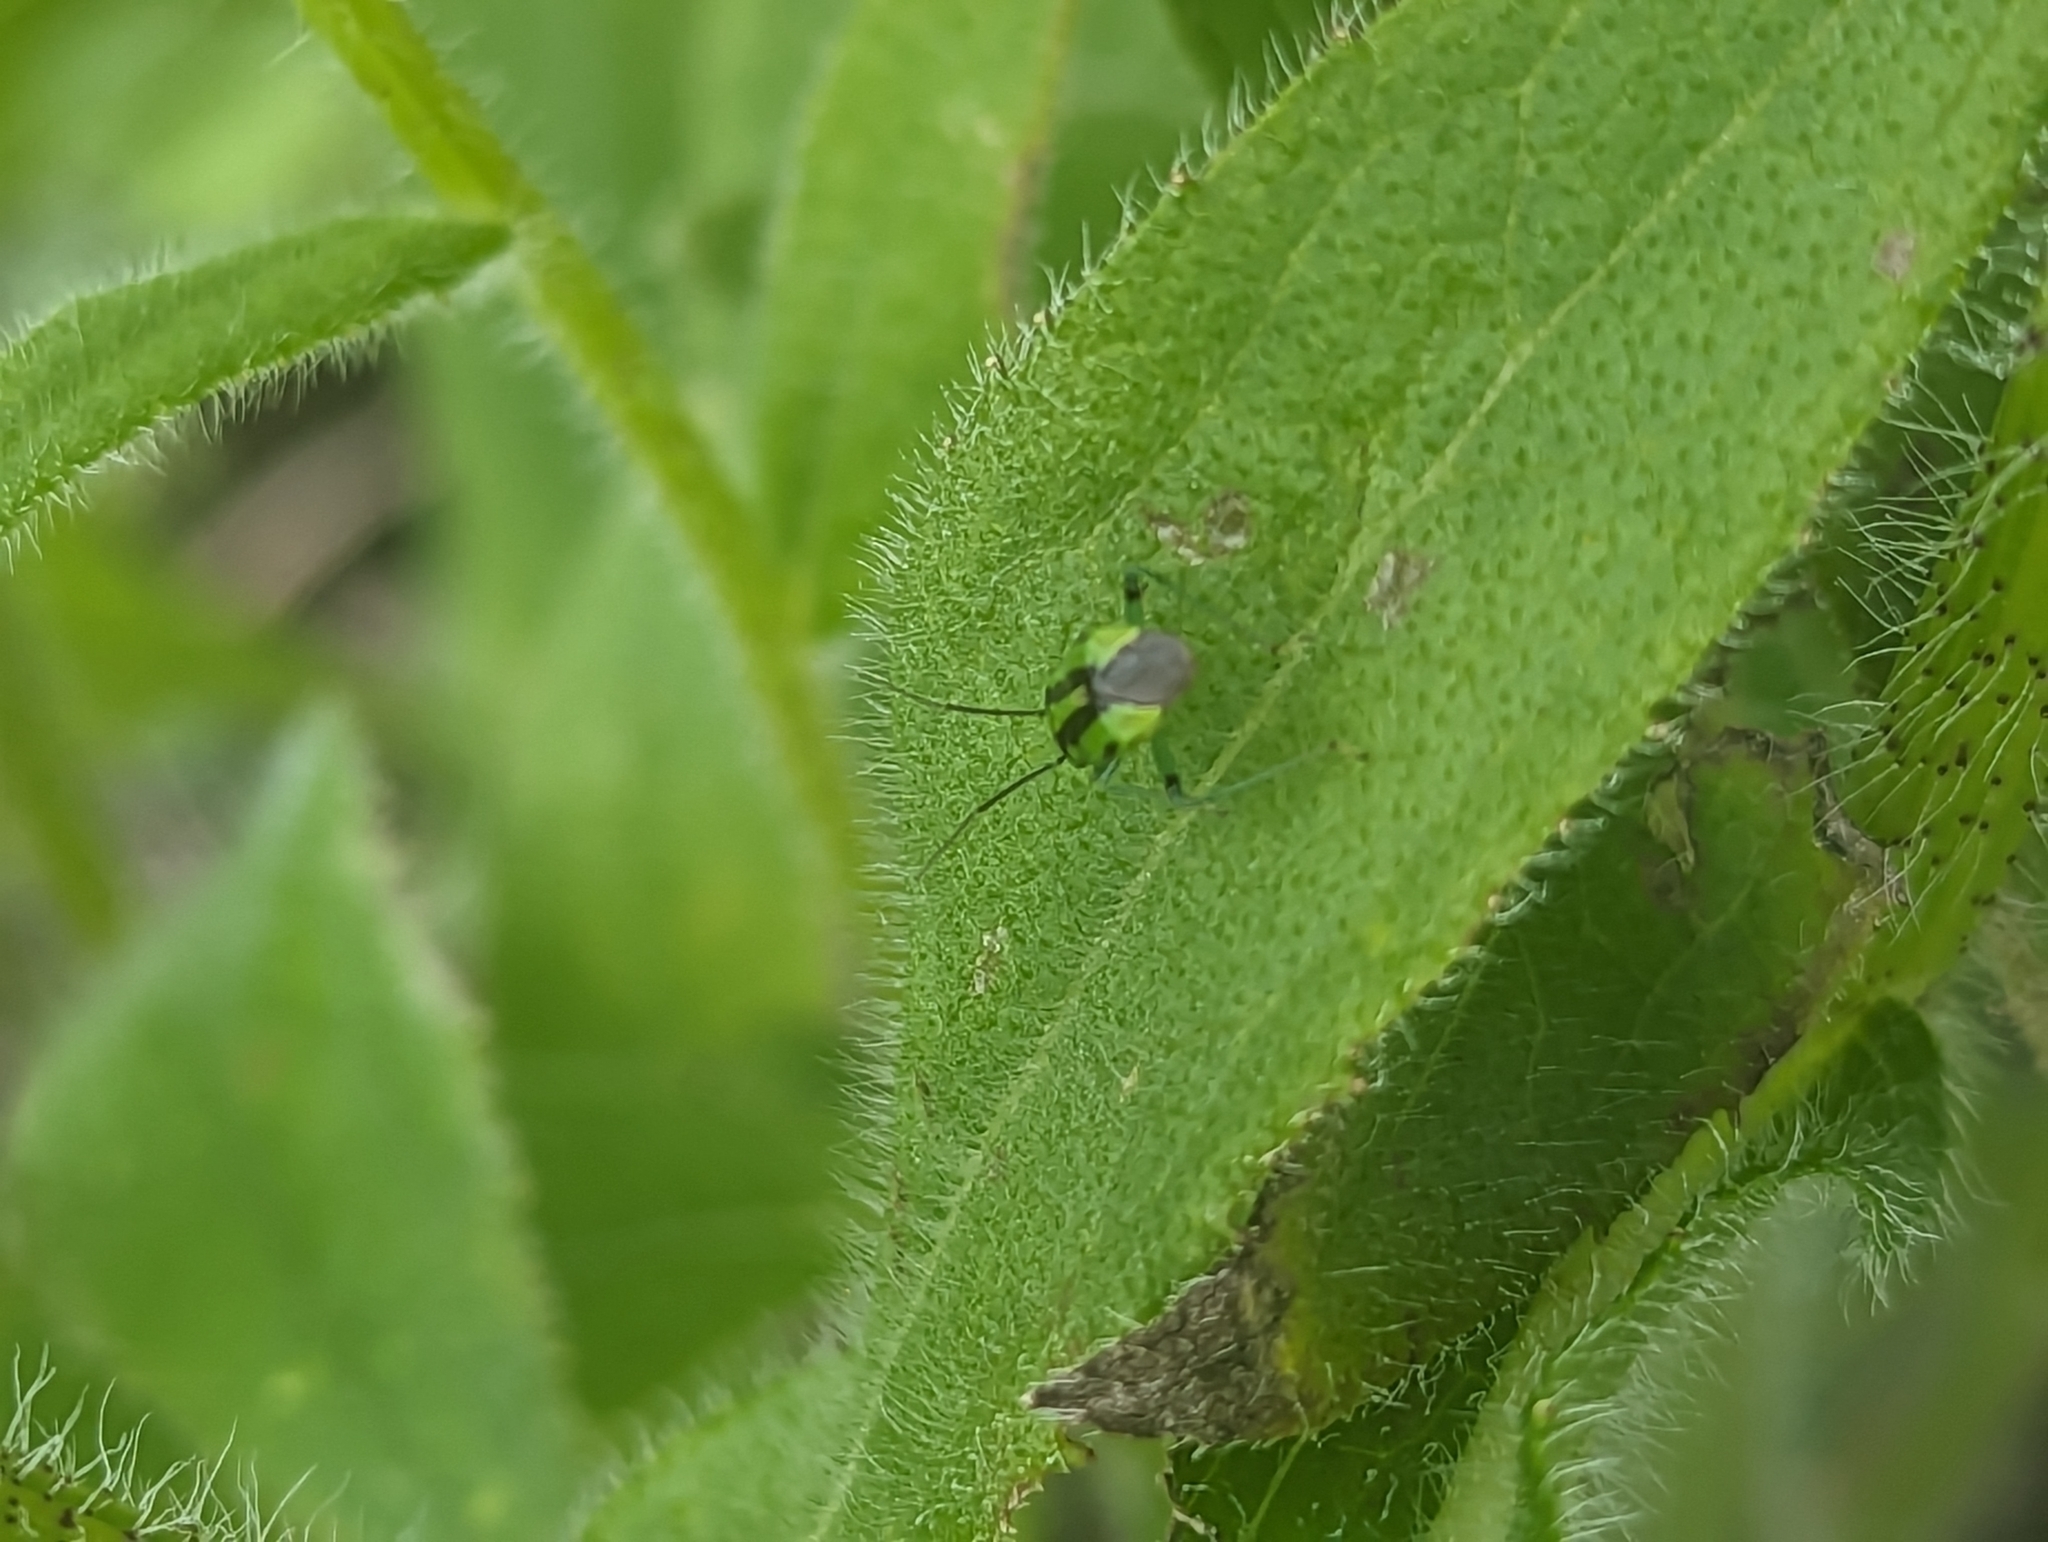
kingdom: Animalia
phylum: Arthropoda
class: Insecta
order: Hemiptera
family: Miridae
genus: Poecilocapsus
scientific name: Poecilocapsus lineatus
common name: Four-lined plant bug
